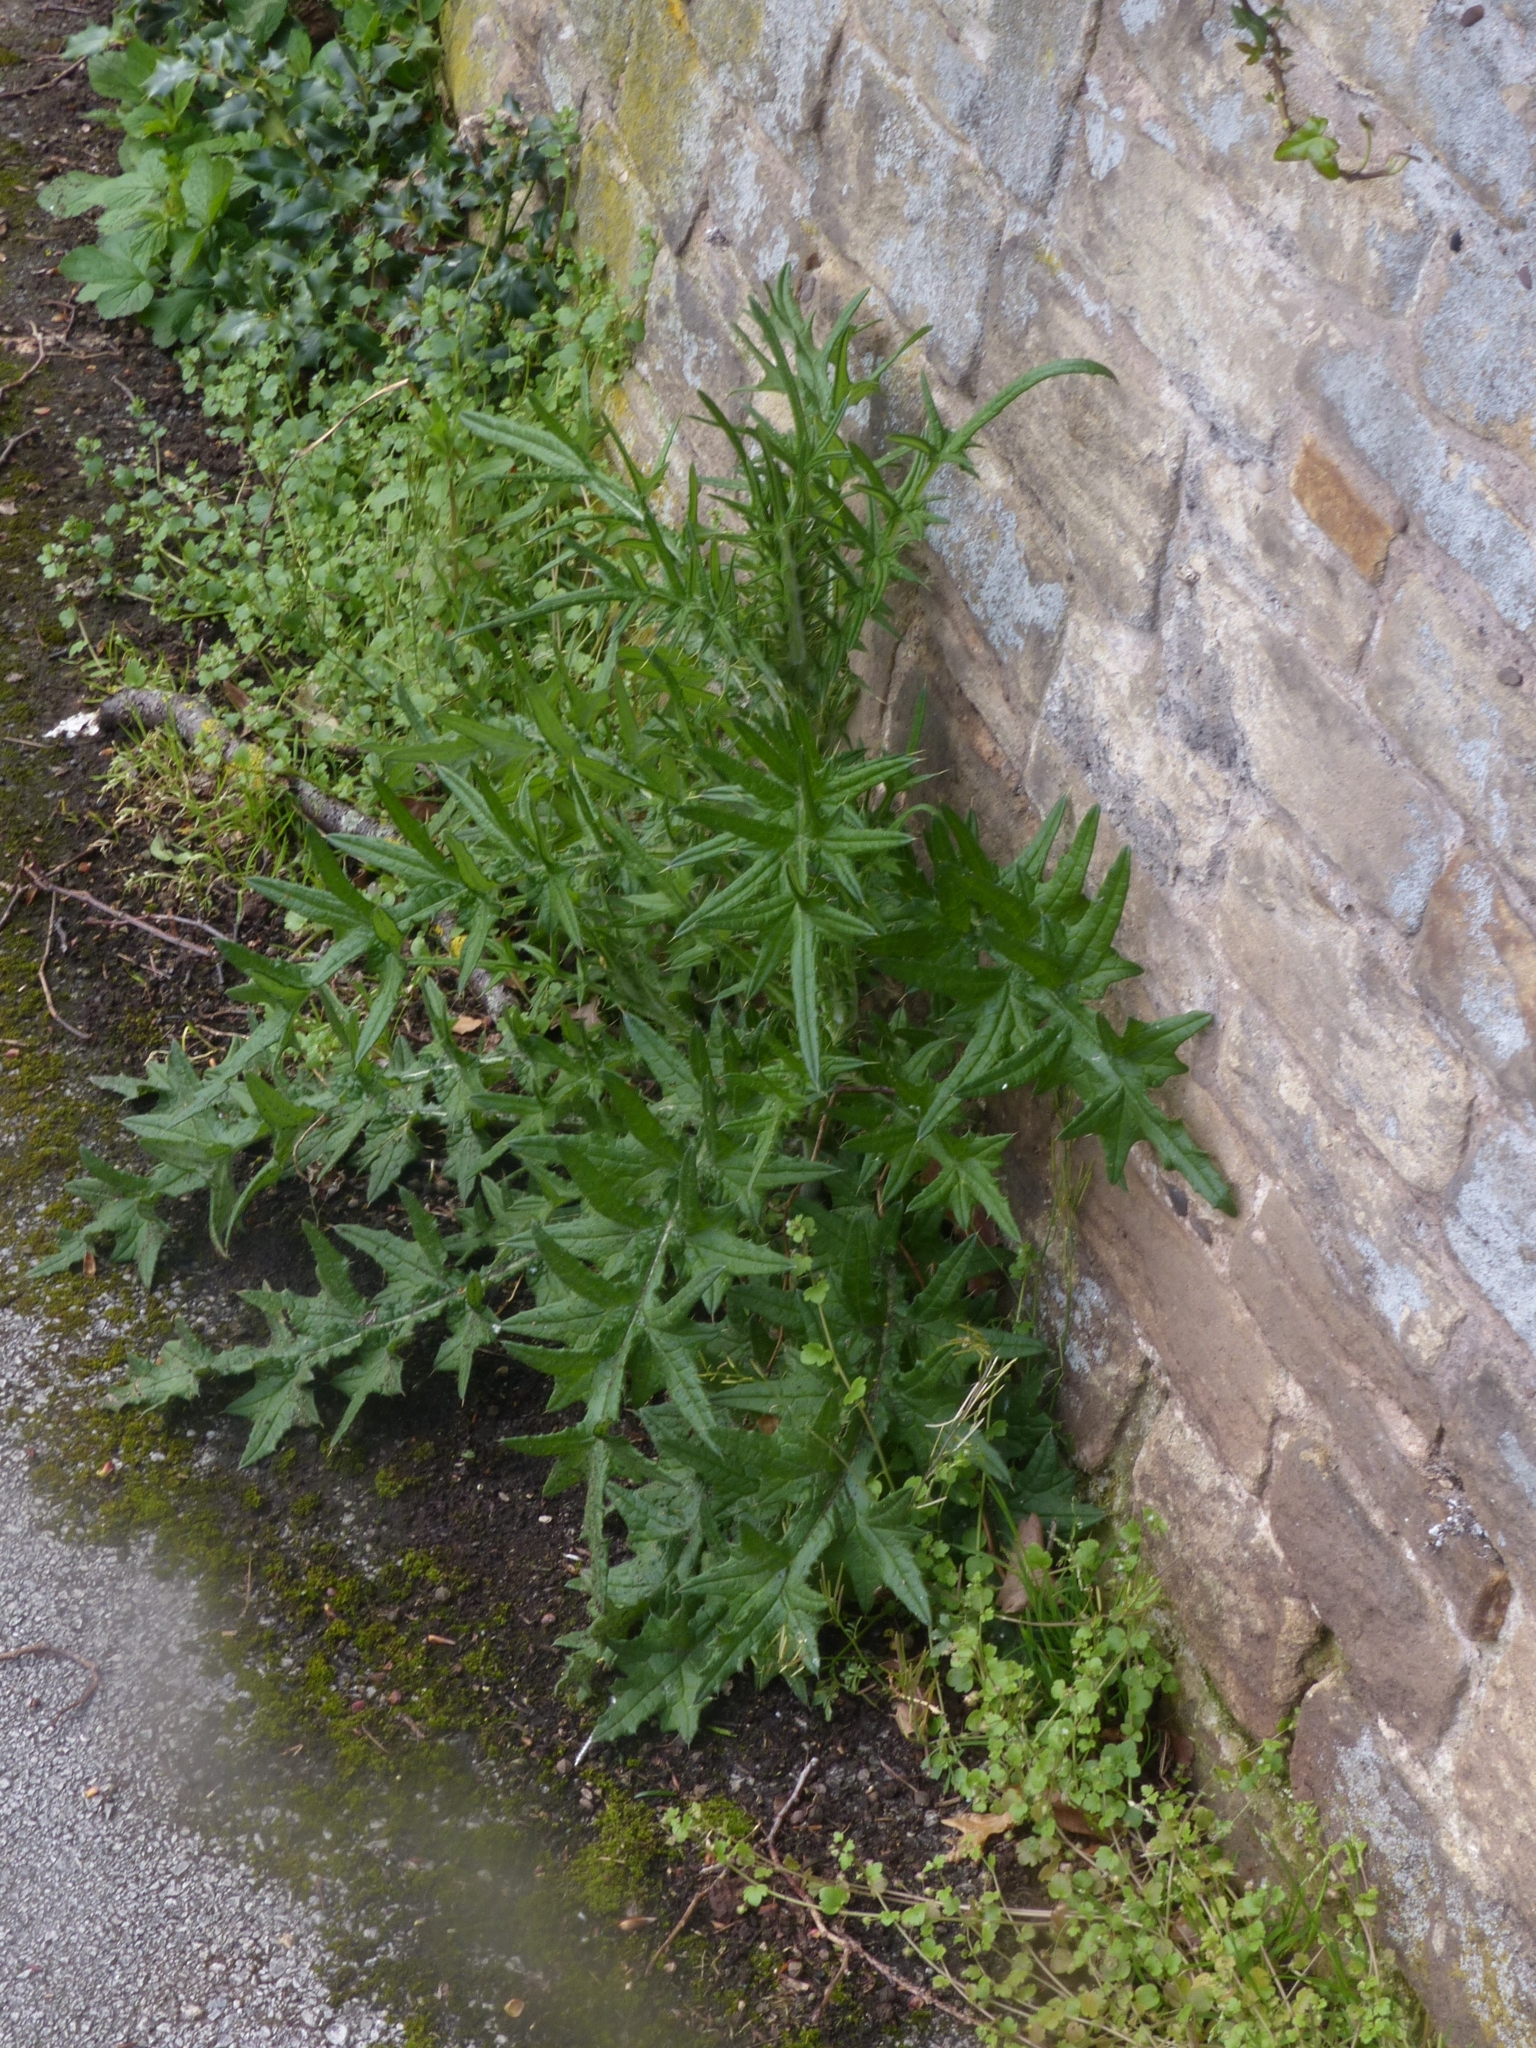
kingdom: Plantae
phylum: Tracheophyta
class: Magnoliopsida
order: Asterales
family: Asteraceae
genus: Cirsium
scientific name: Cirsium vulgare
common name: Bull thistle
